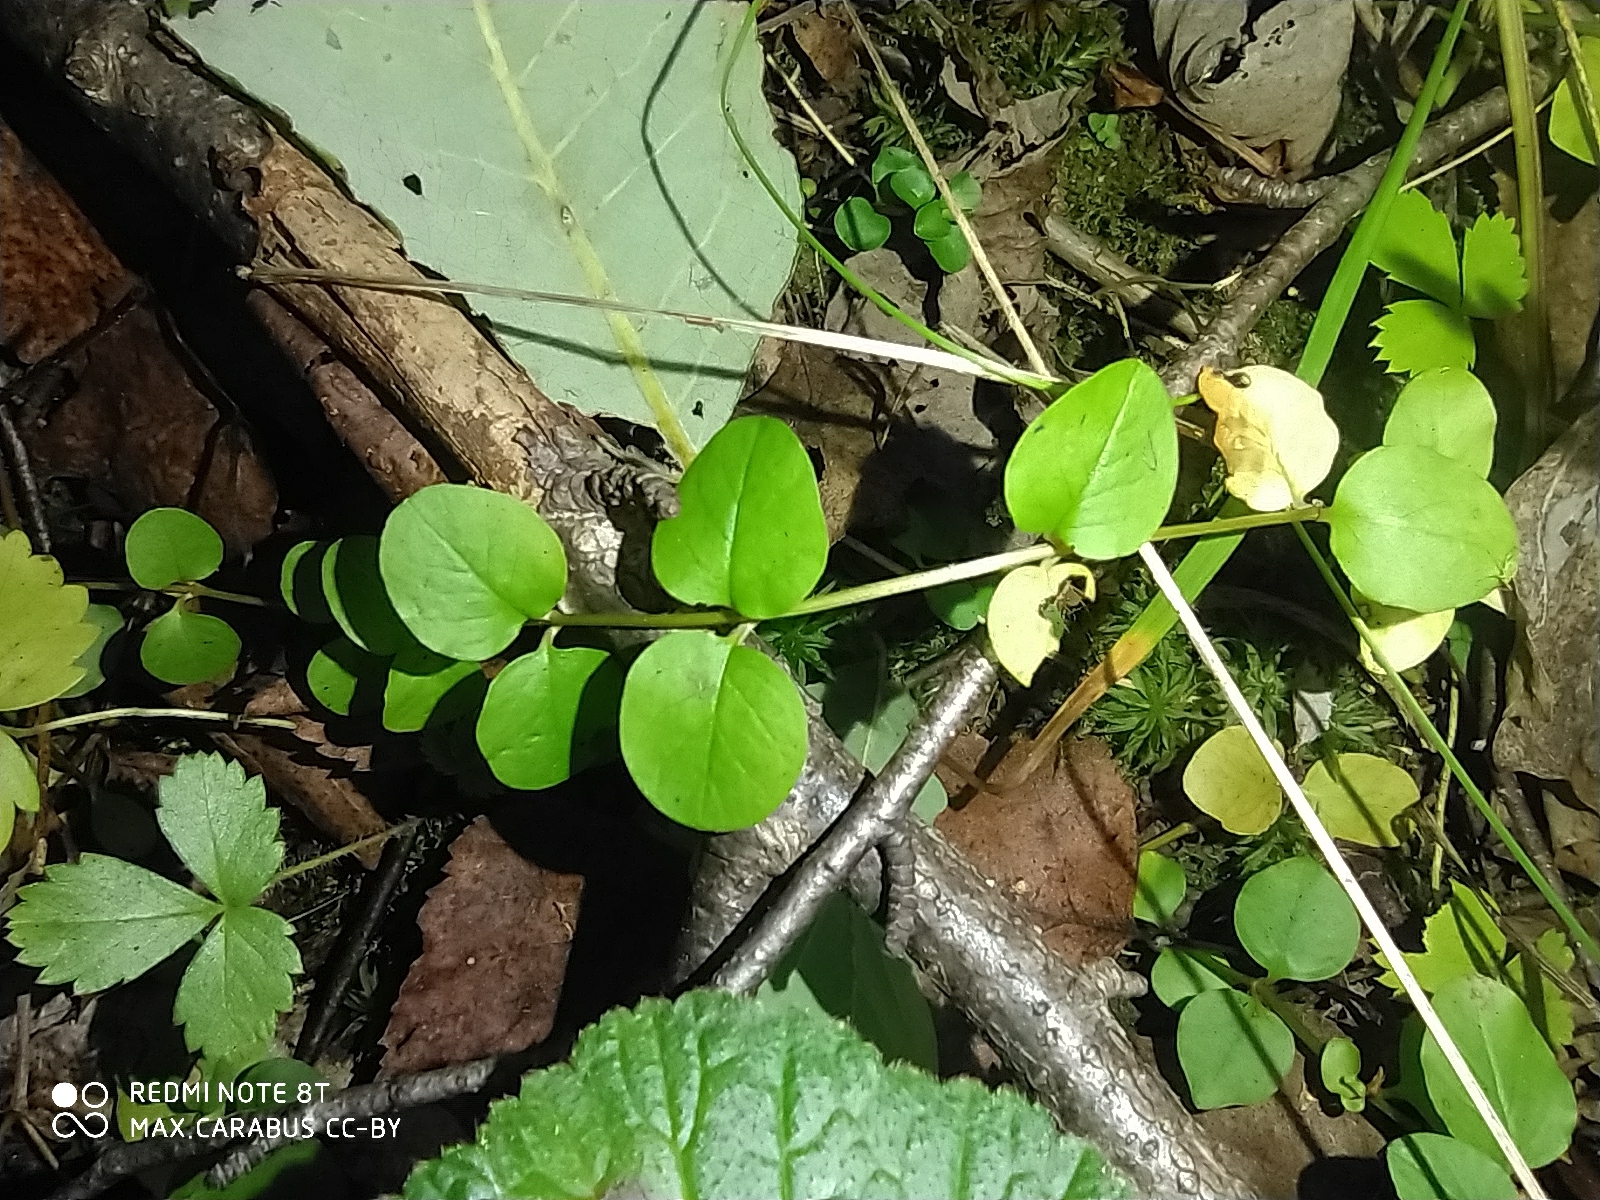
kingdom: Plantae
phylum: Tracheophyta
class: Magnoliopsida
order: Ericales
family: Primulaceae
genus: Lysimachia
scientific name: Lysimachia nummularia
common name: Moneywort
